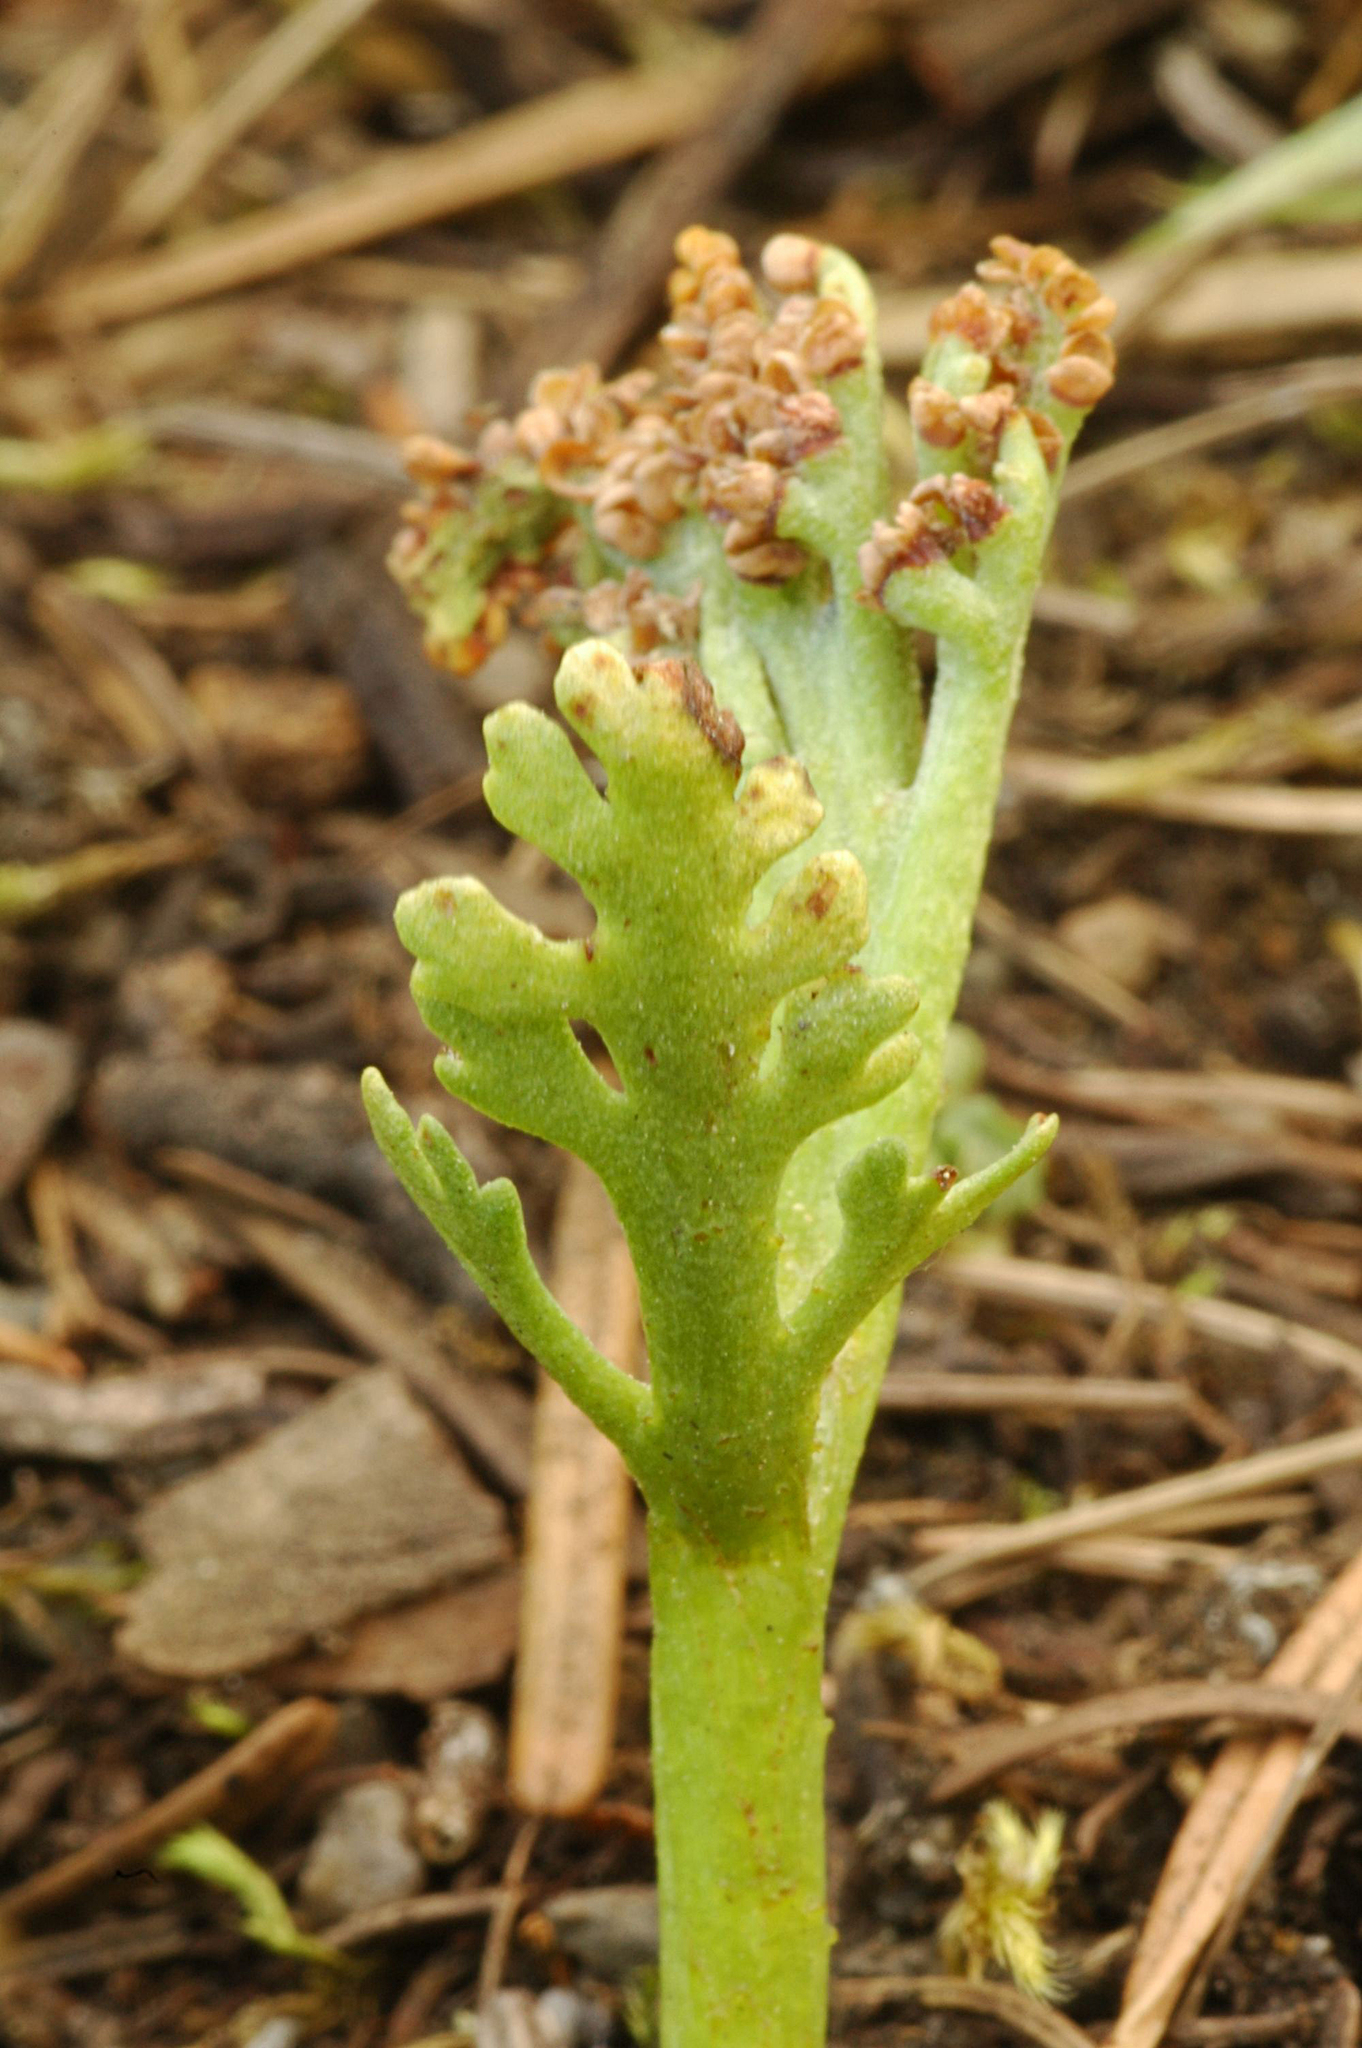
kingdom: Plantae
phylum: Tracheophyta
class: Polypodiopsida
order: Ophioglossales
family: Ophioglossaceae
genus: Botrychium
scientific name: Botrychium ascendens
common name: Ascending grapefern
